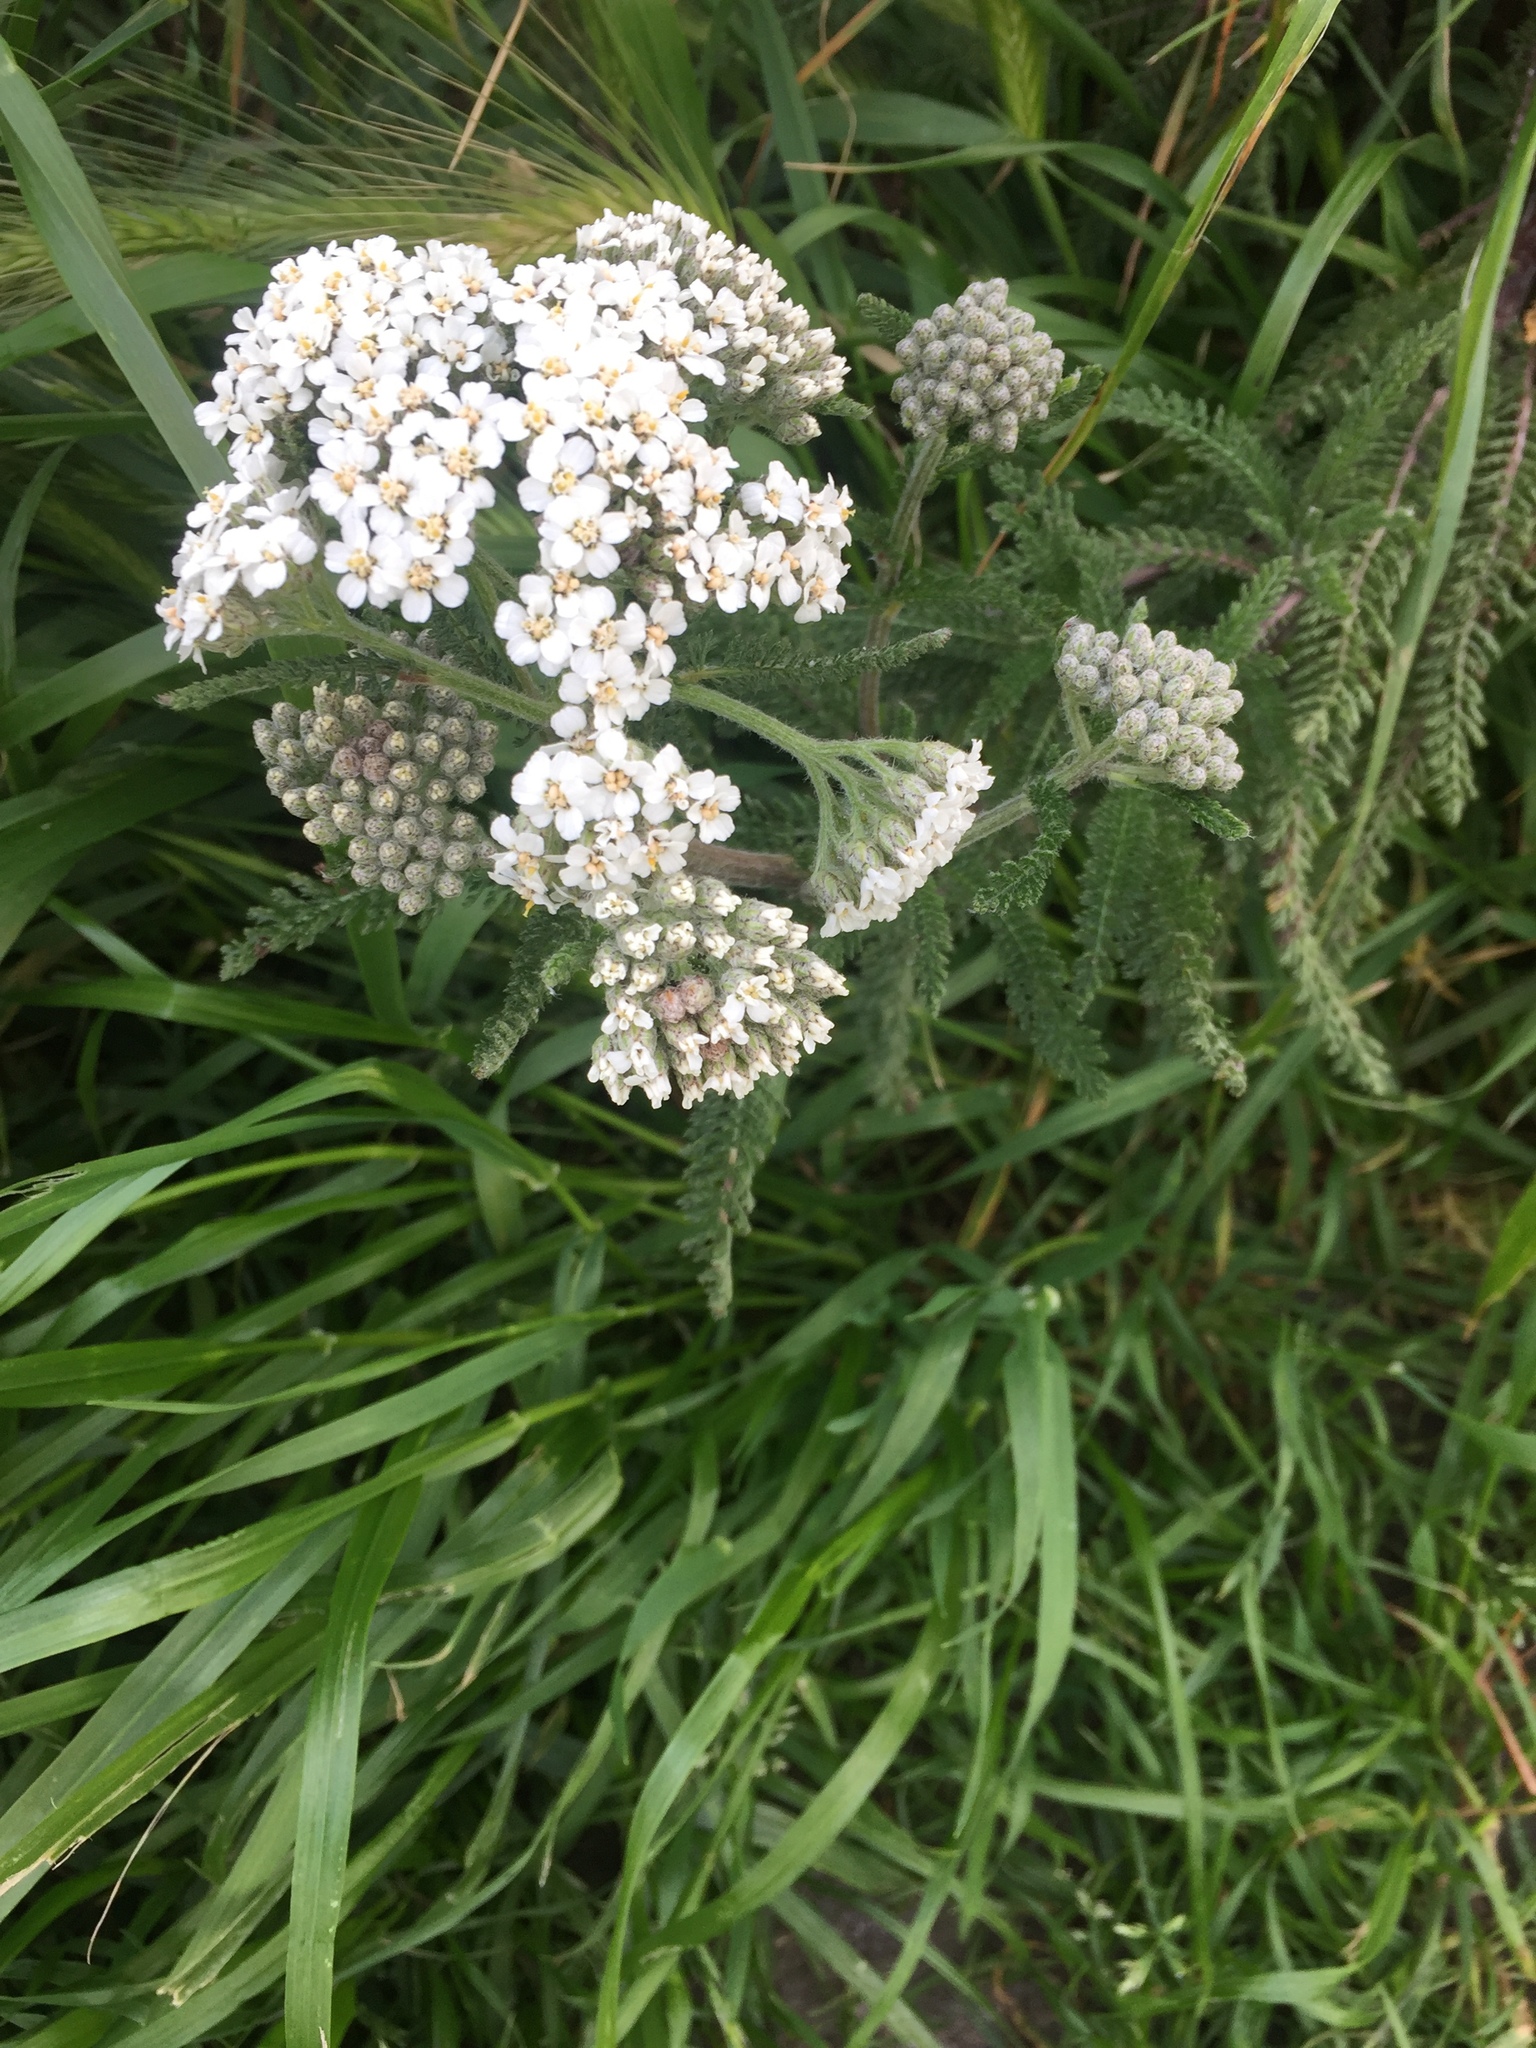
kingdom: Plantae
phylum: Tracheophyta
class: Magnoliopsida
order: Asterales
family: Asteraceae
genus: Achillea
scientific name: Achillea millefolium
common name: Yarrow
